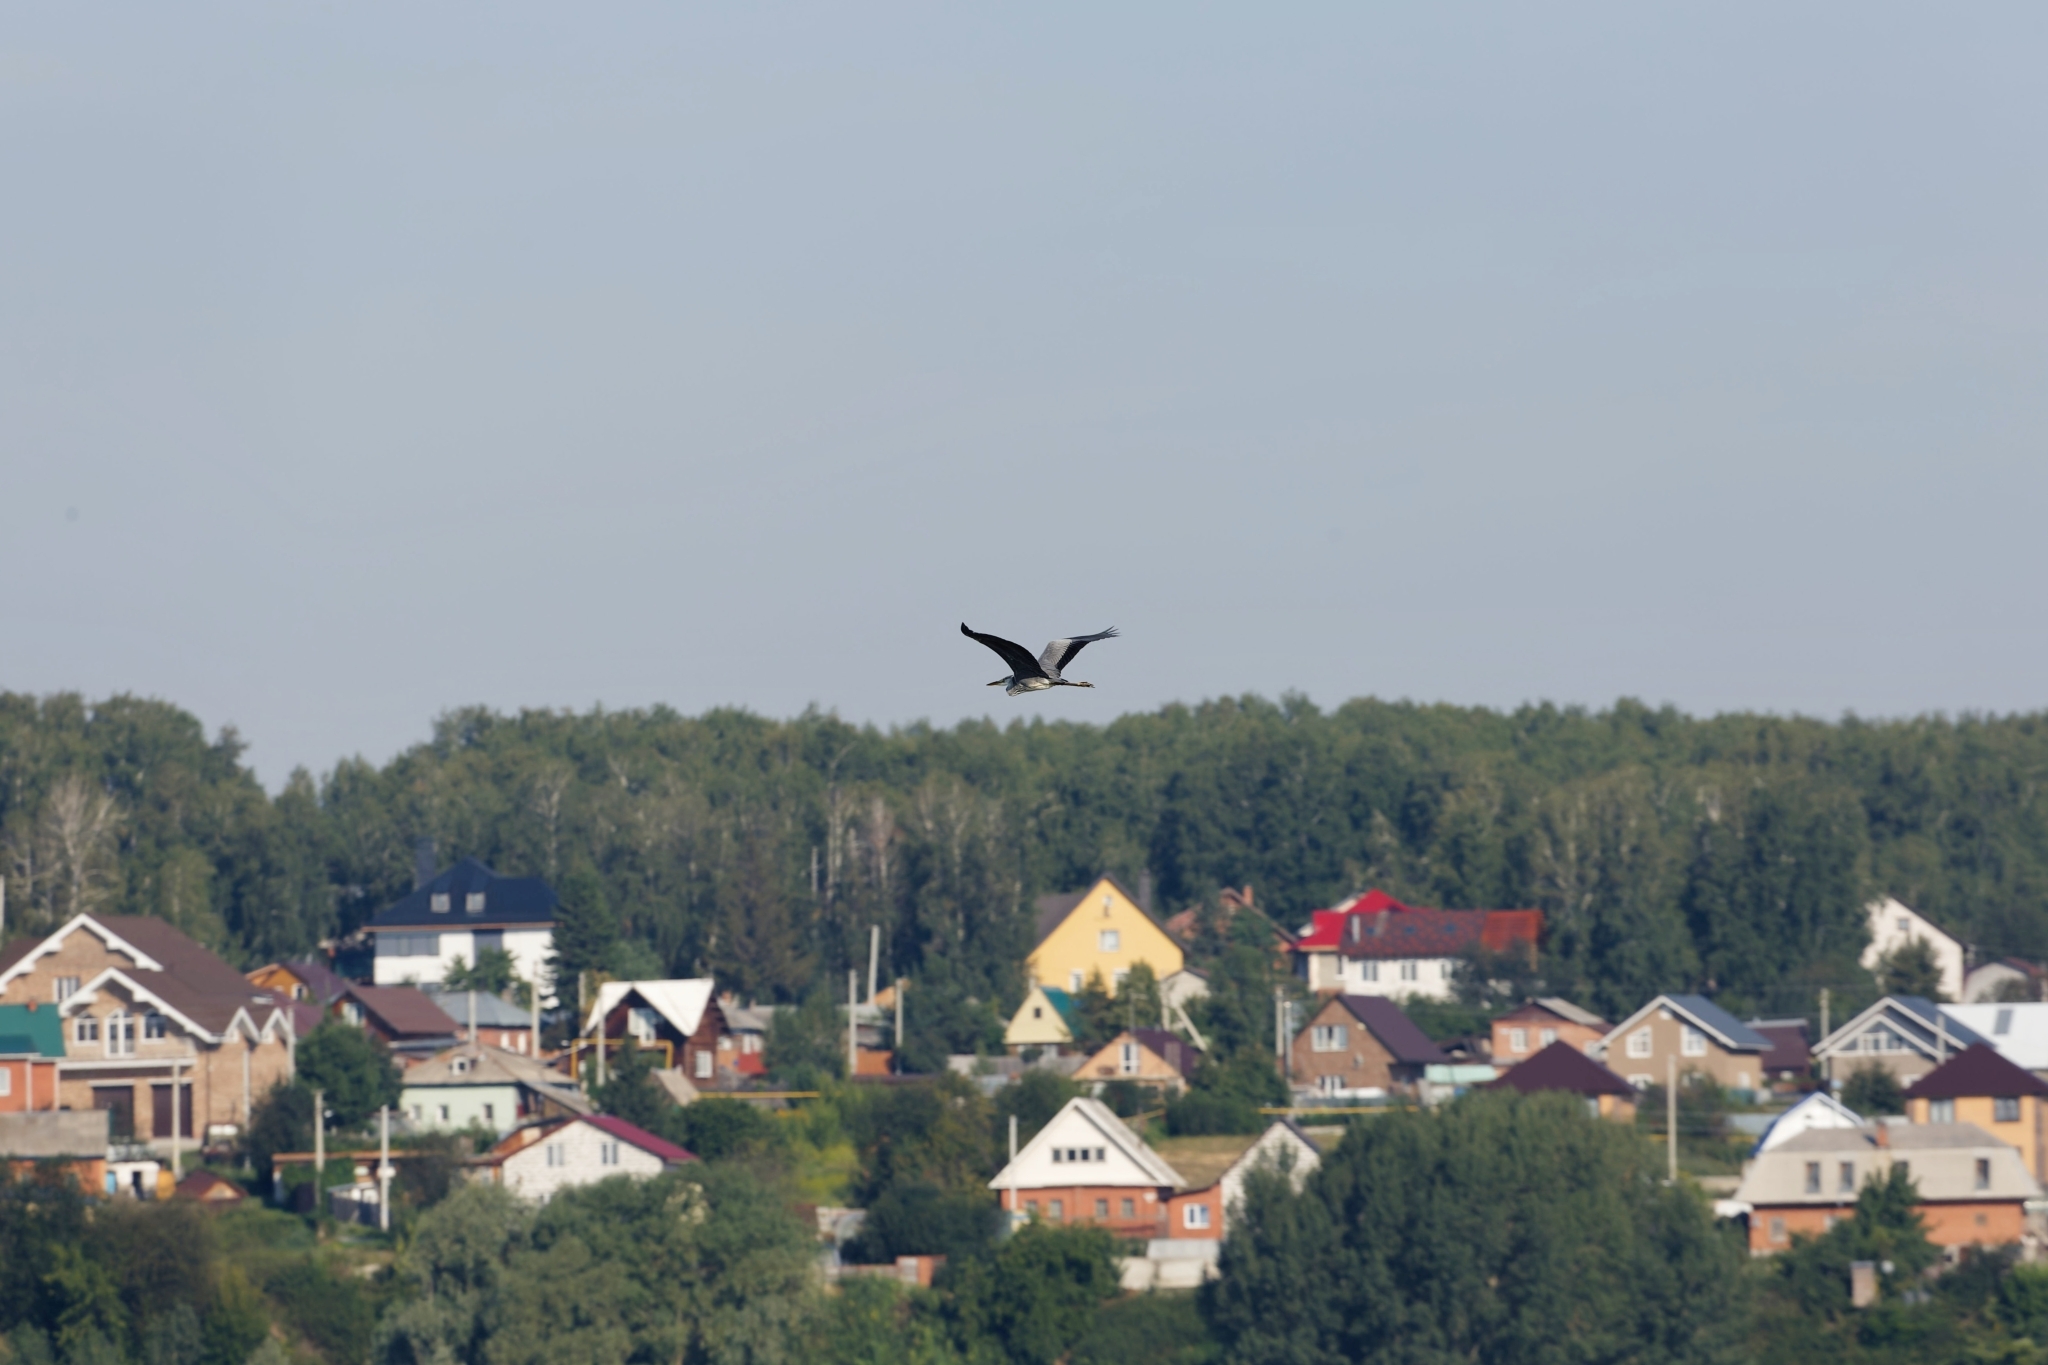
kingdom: Animalia
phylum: Chordata
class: Aves
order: Pelecaniformes
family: Ardeidae
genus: Ardea
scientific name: Ardea cinerea
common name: Grey heron
